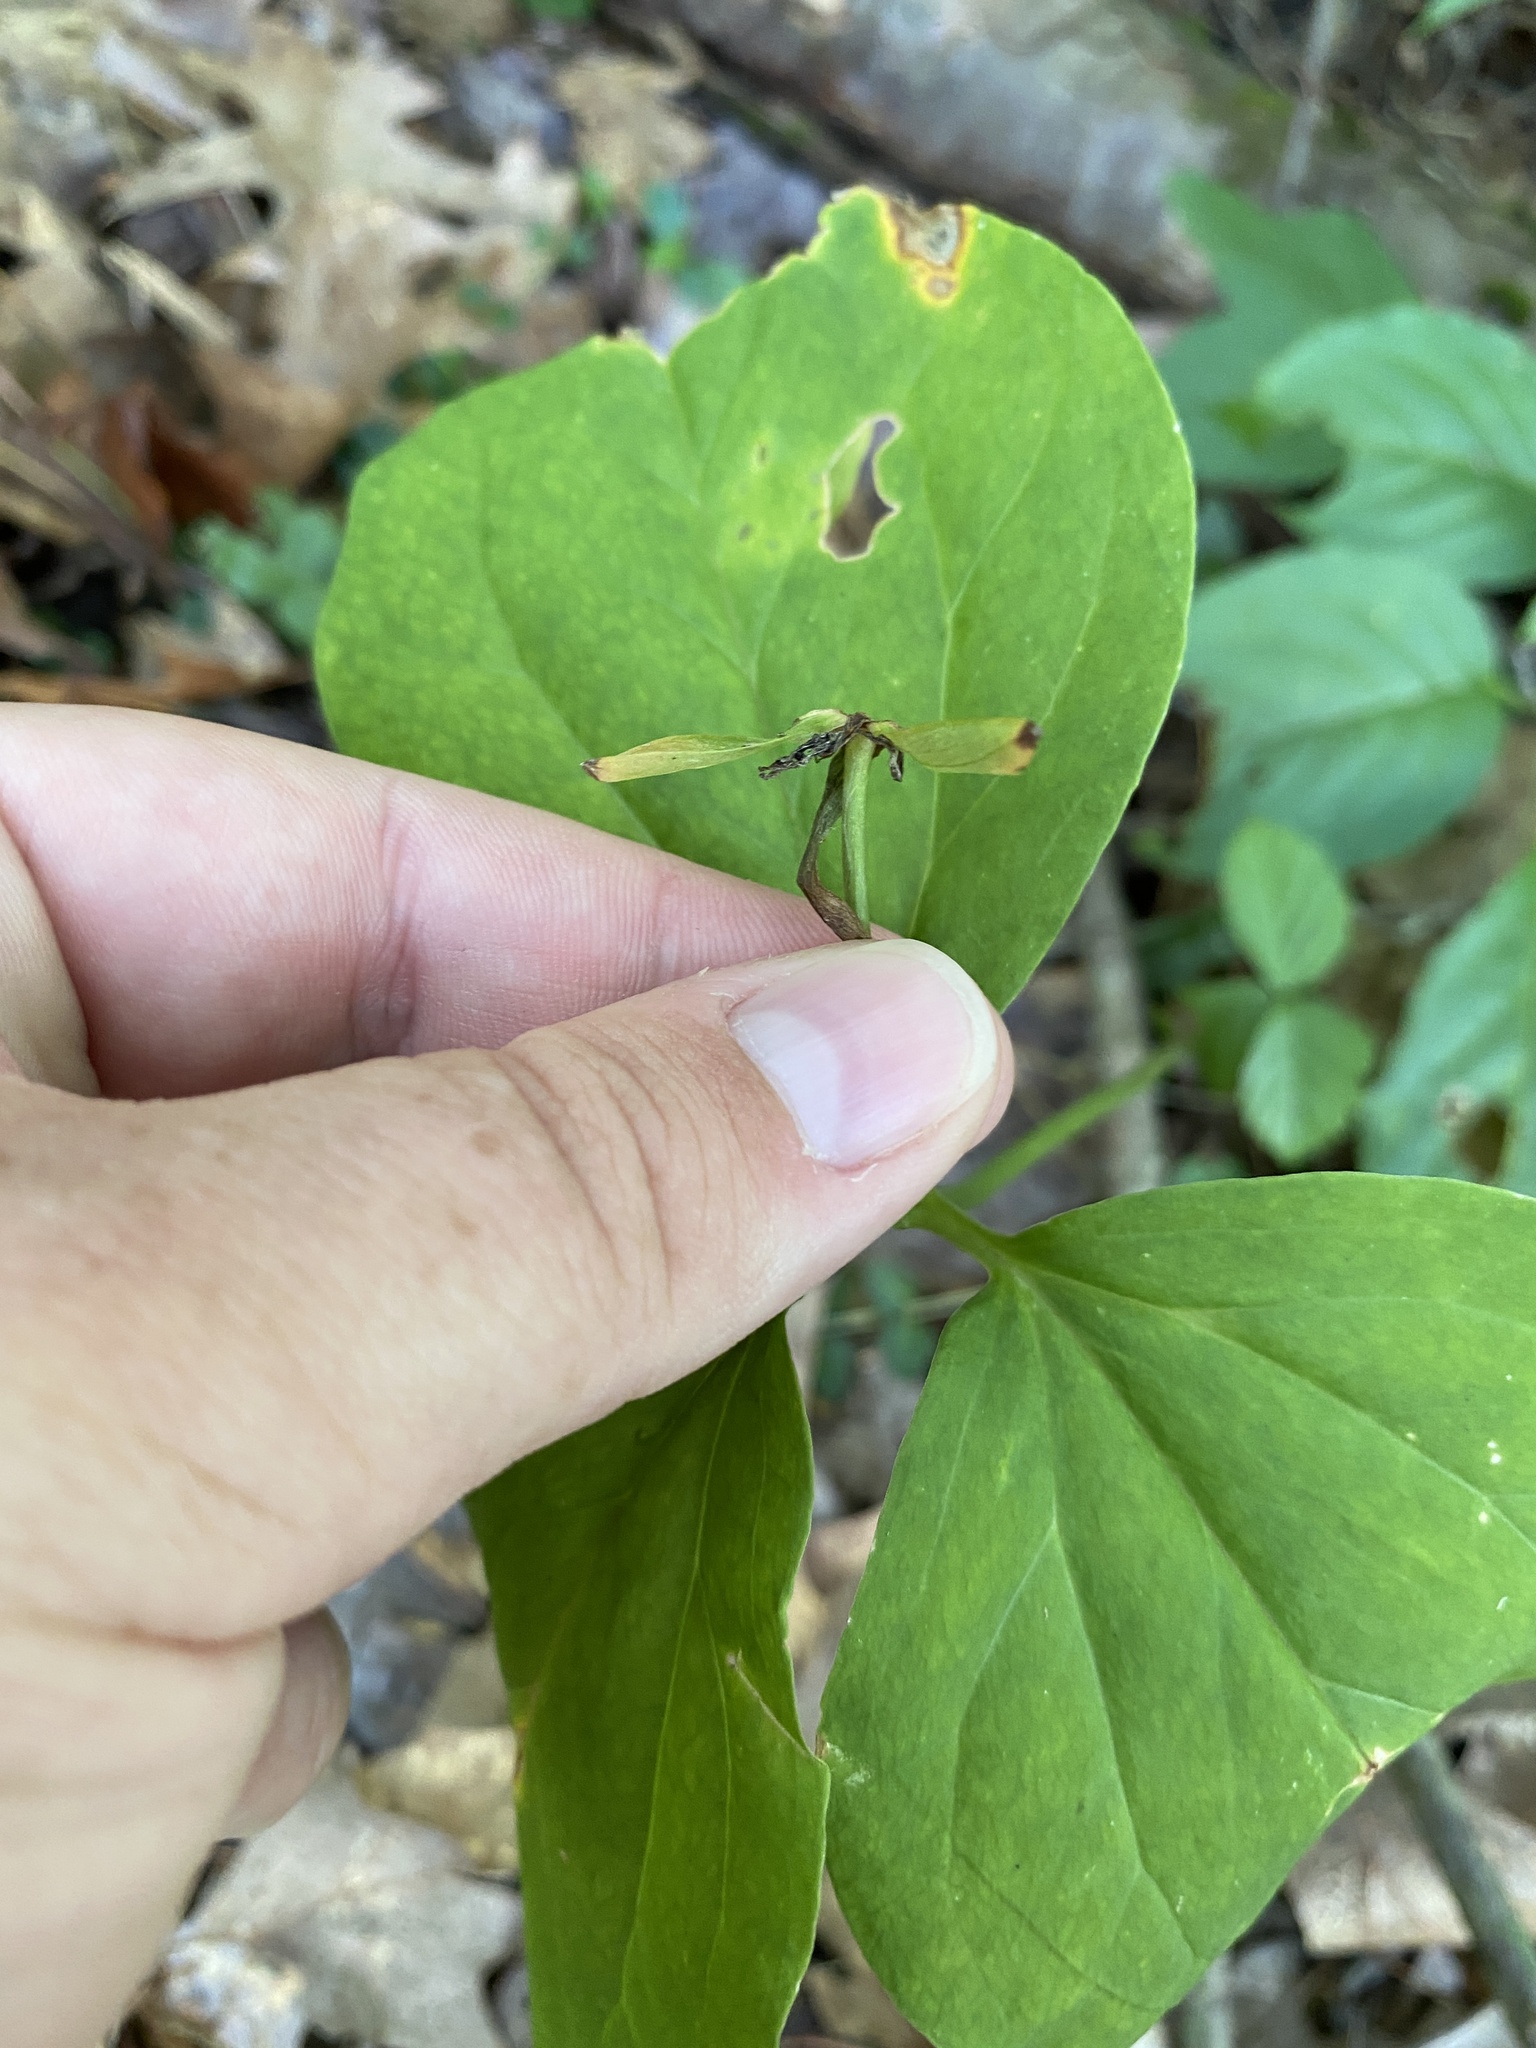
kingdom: Plantae
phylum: Tracheophyta
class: Liliopsida
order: Liliales
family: Melanthiaceae
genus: Trillium
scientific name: Trillium undulatum
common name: Paint trillium
